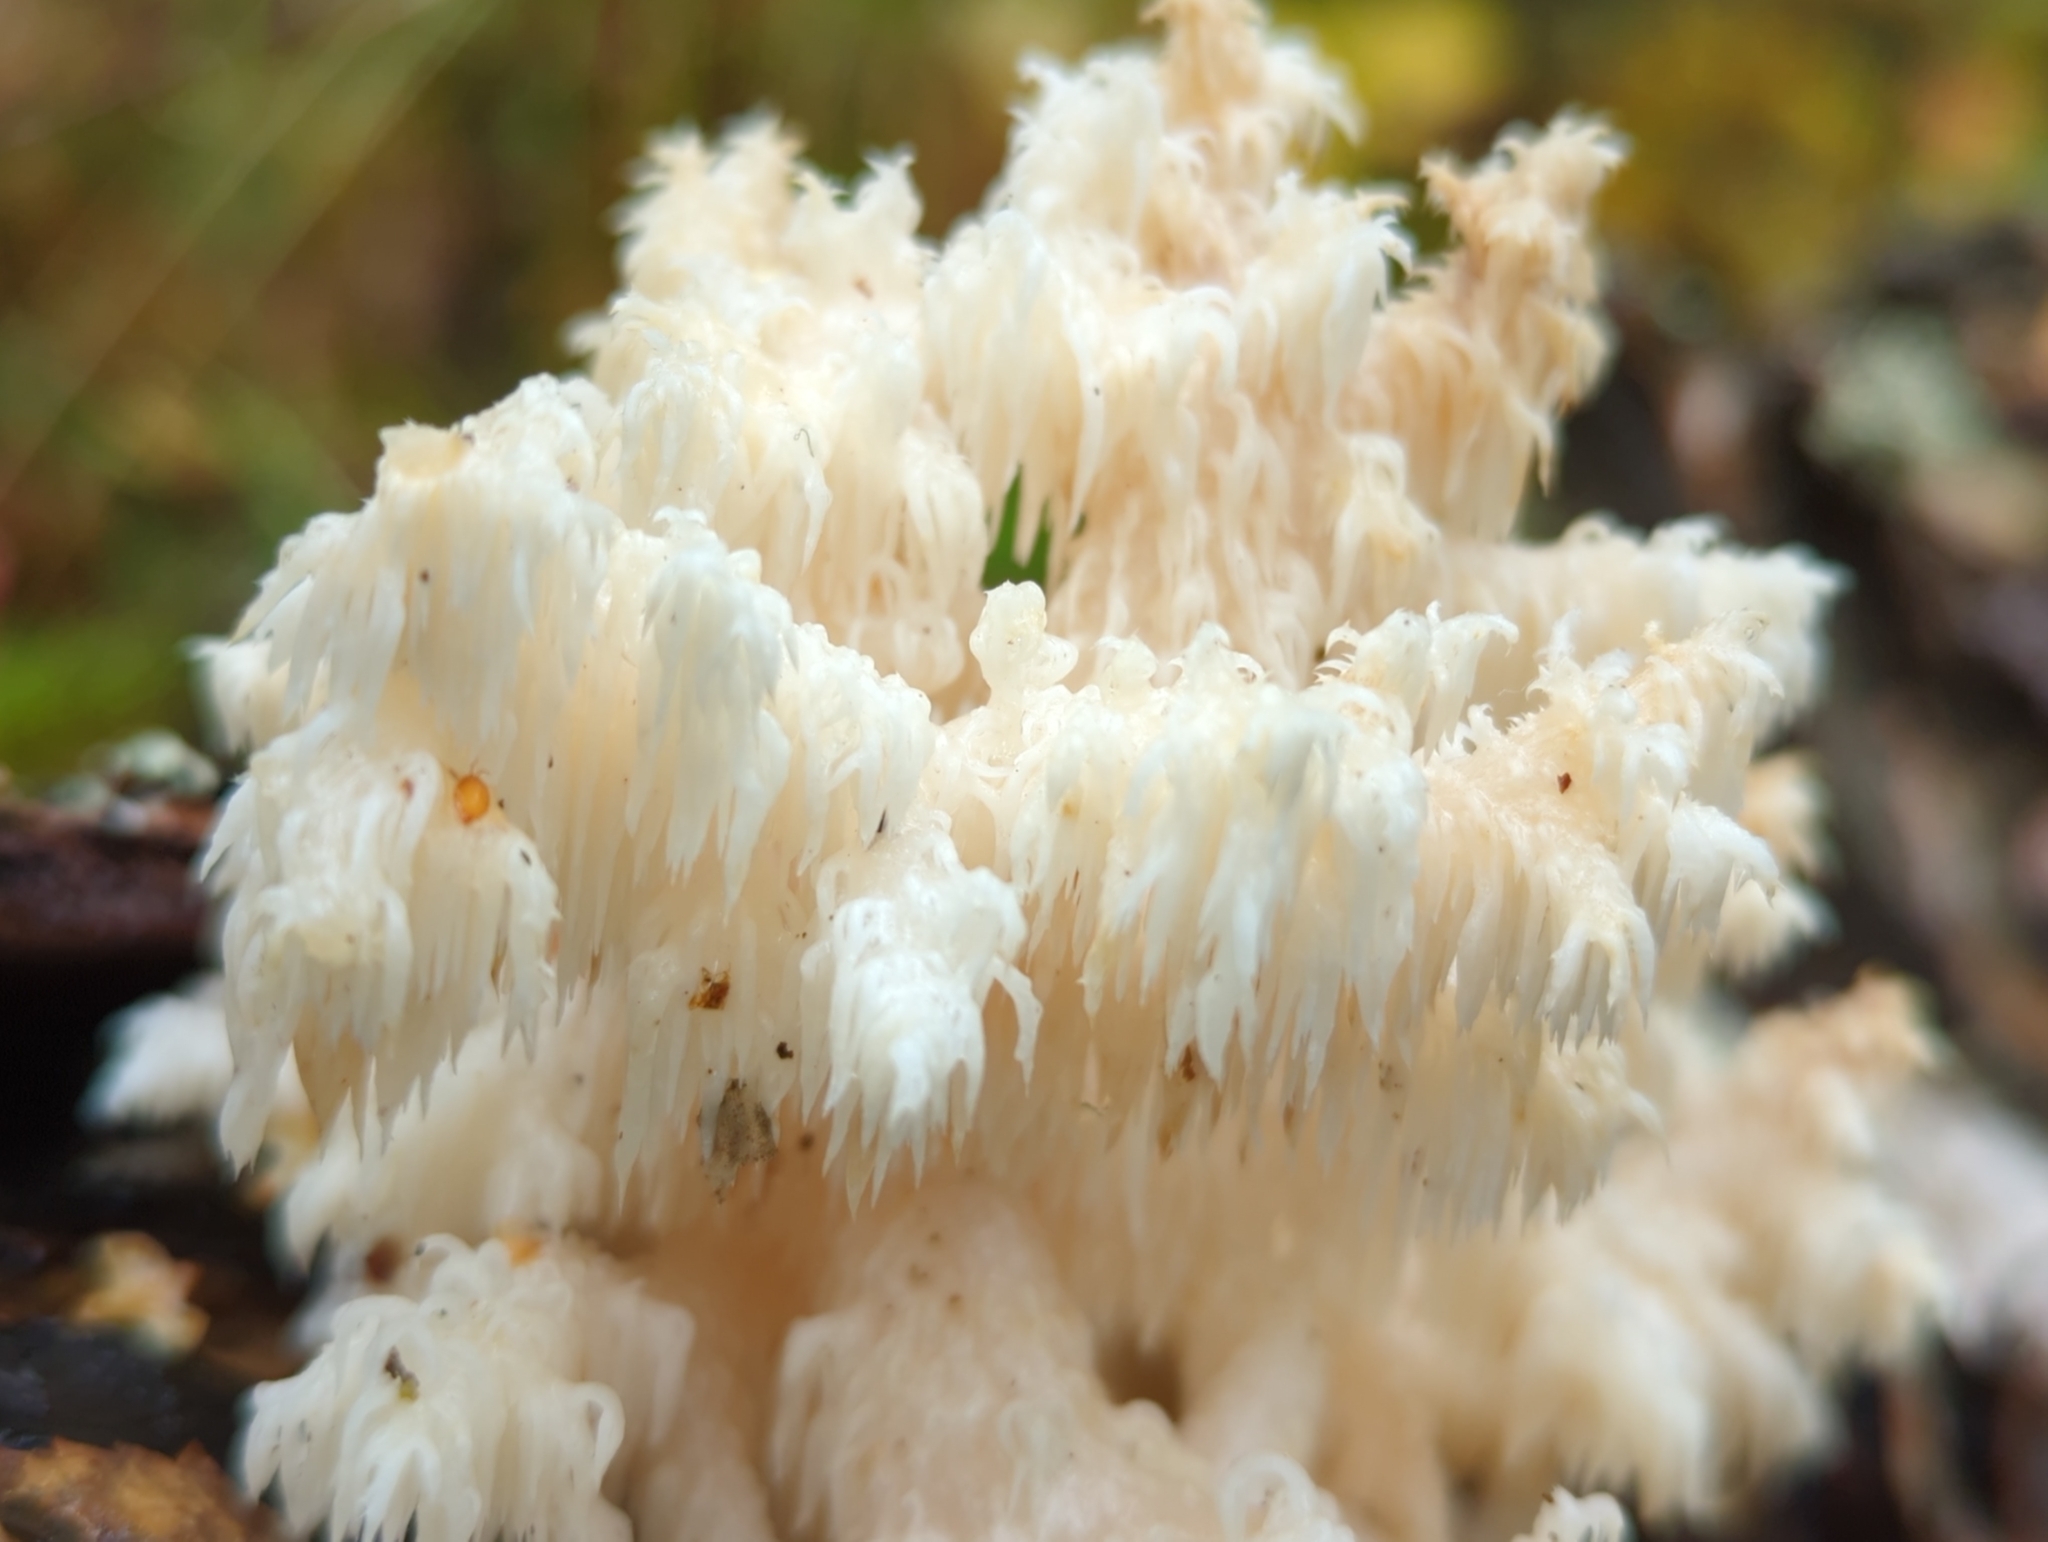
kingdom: Fungi
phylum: Basidiomycota
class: Agaricomycetes
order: Russulales
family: Hericiaceae
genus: Hericium
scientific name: Hericium coralloides
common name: Coral tooth
